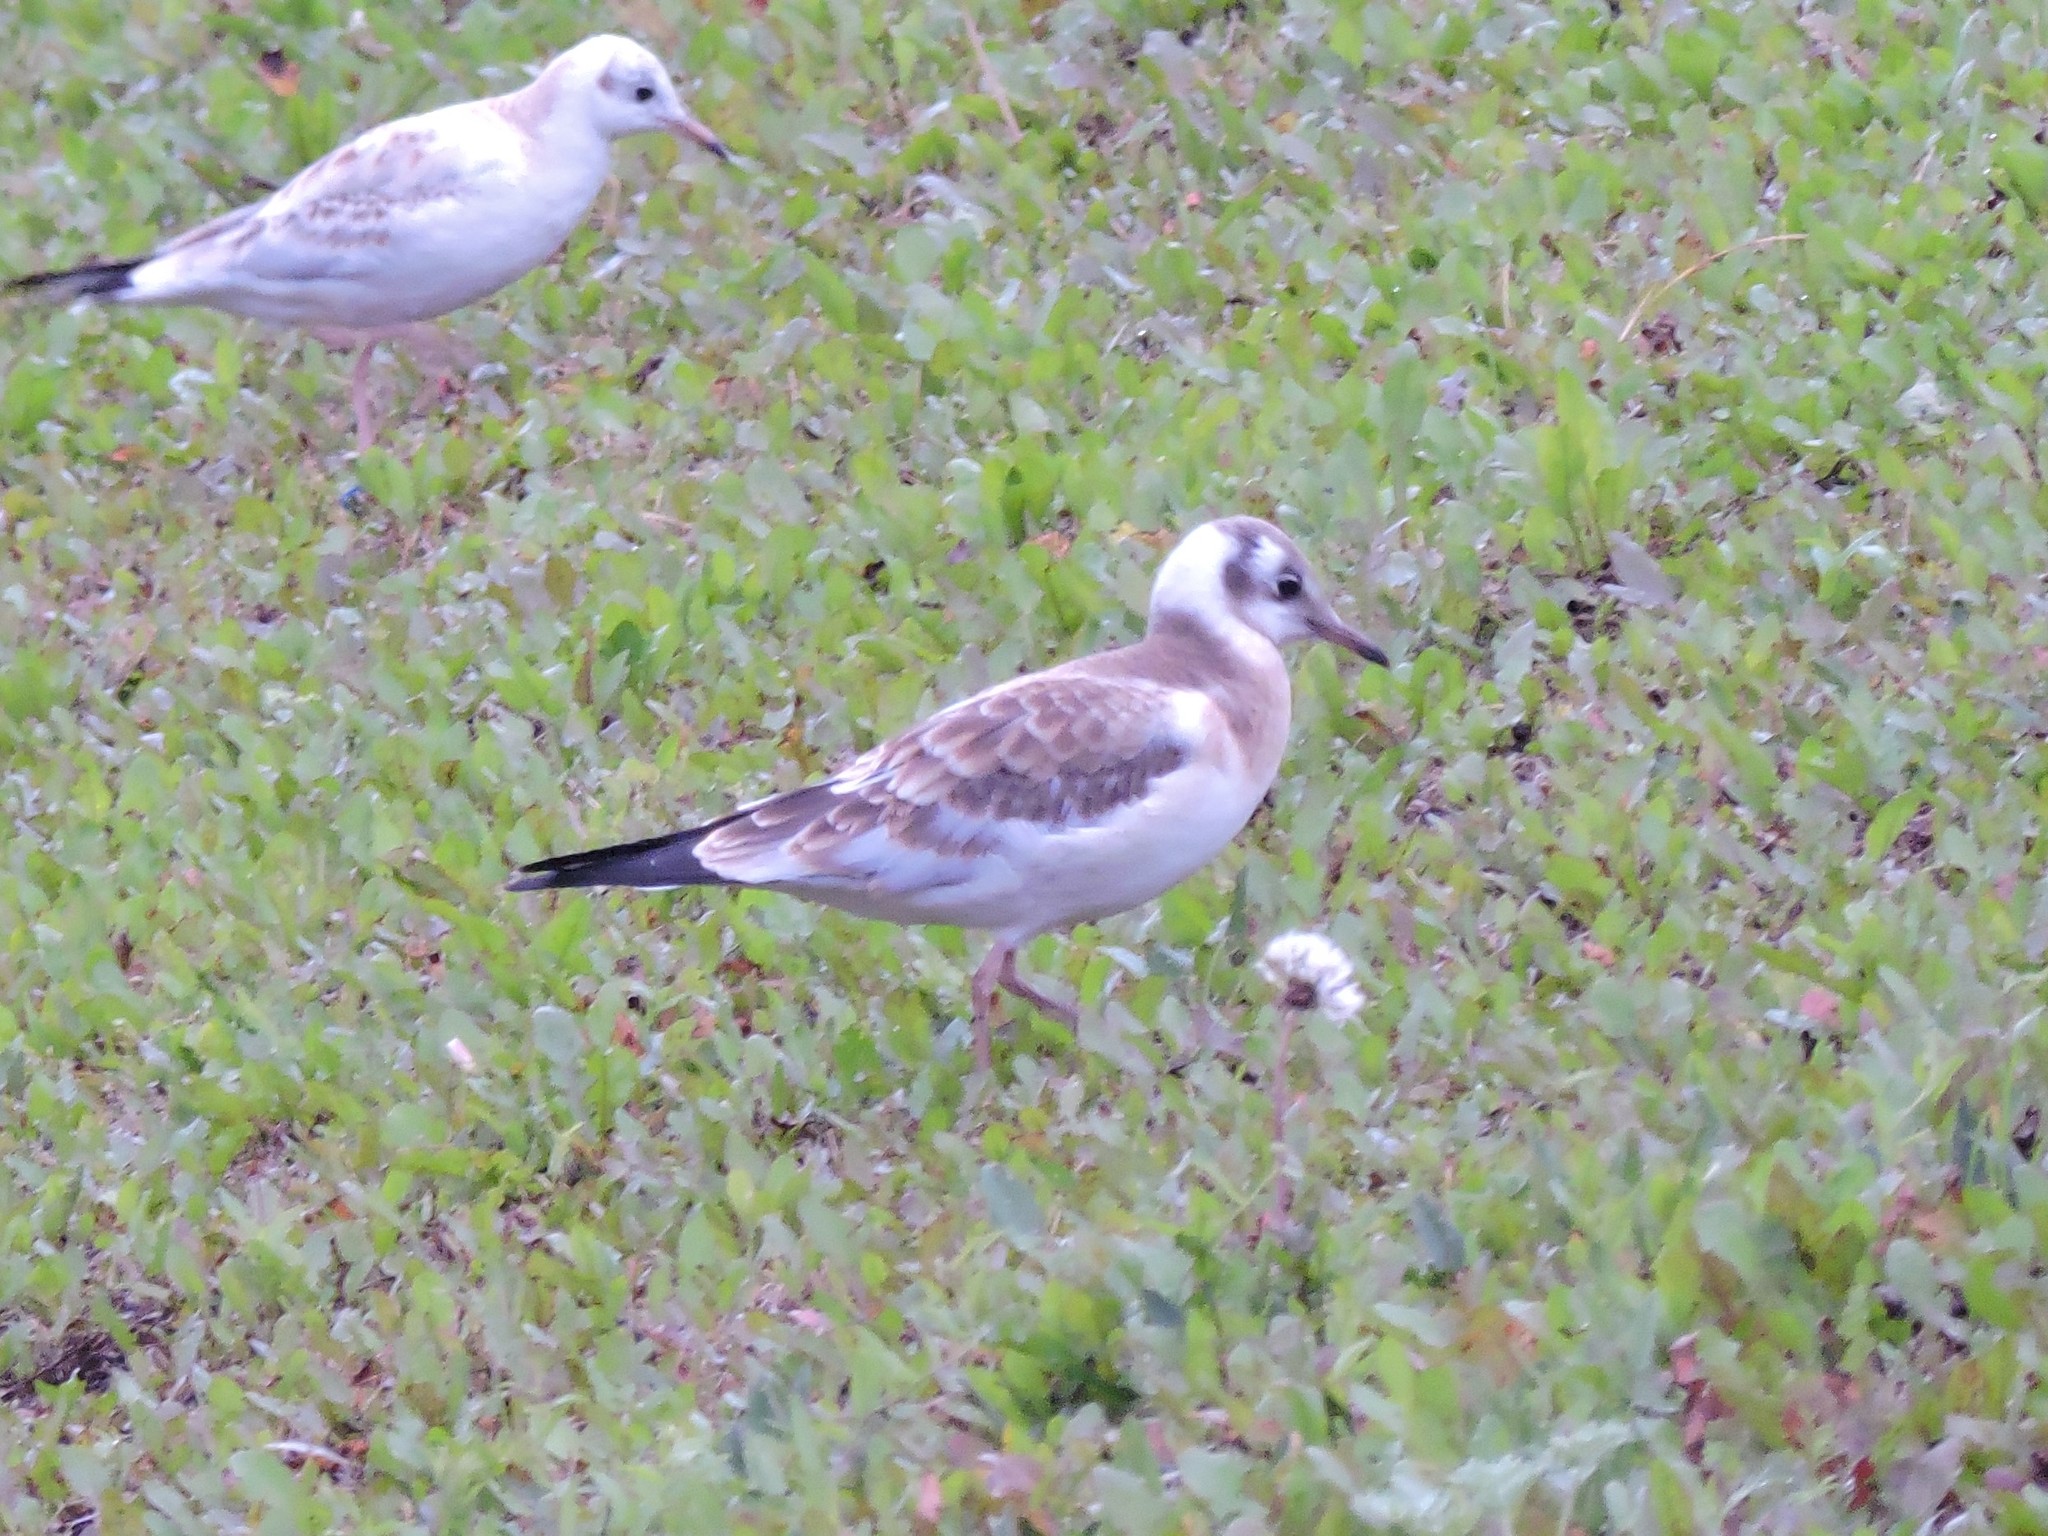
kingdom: Animalia
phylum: Chordata
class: Aves
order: Charadriiformes
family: Laridae
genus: Chroicocephalus
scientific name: Chroicocephalus ridibundus
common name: Black-headed gull
